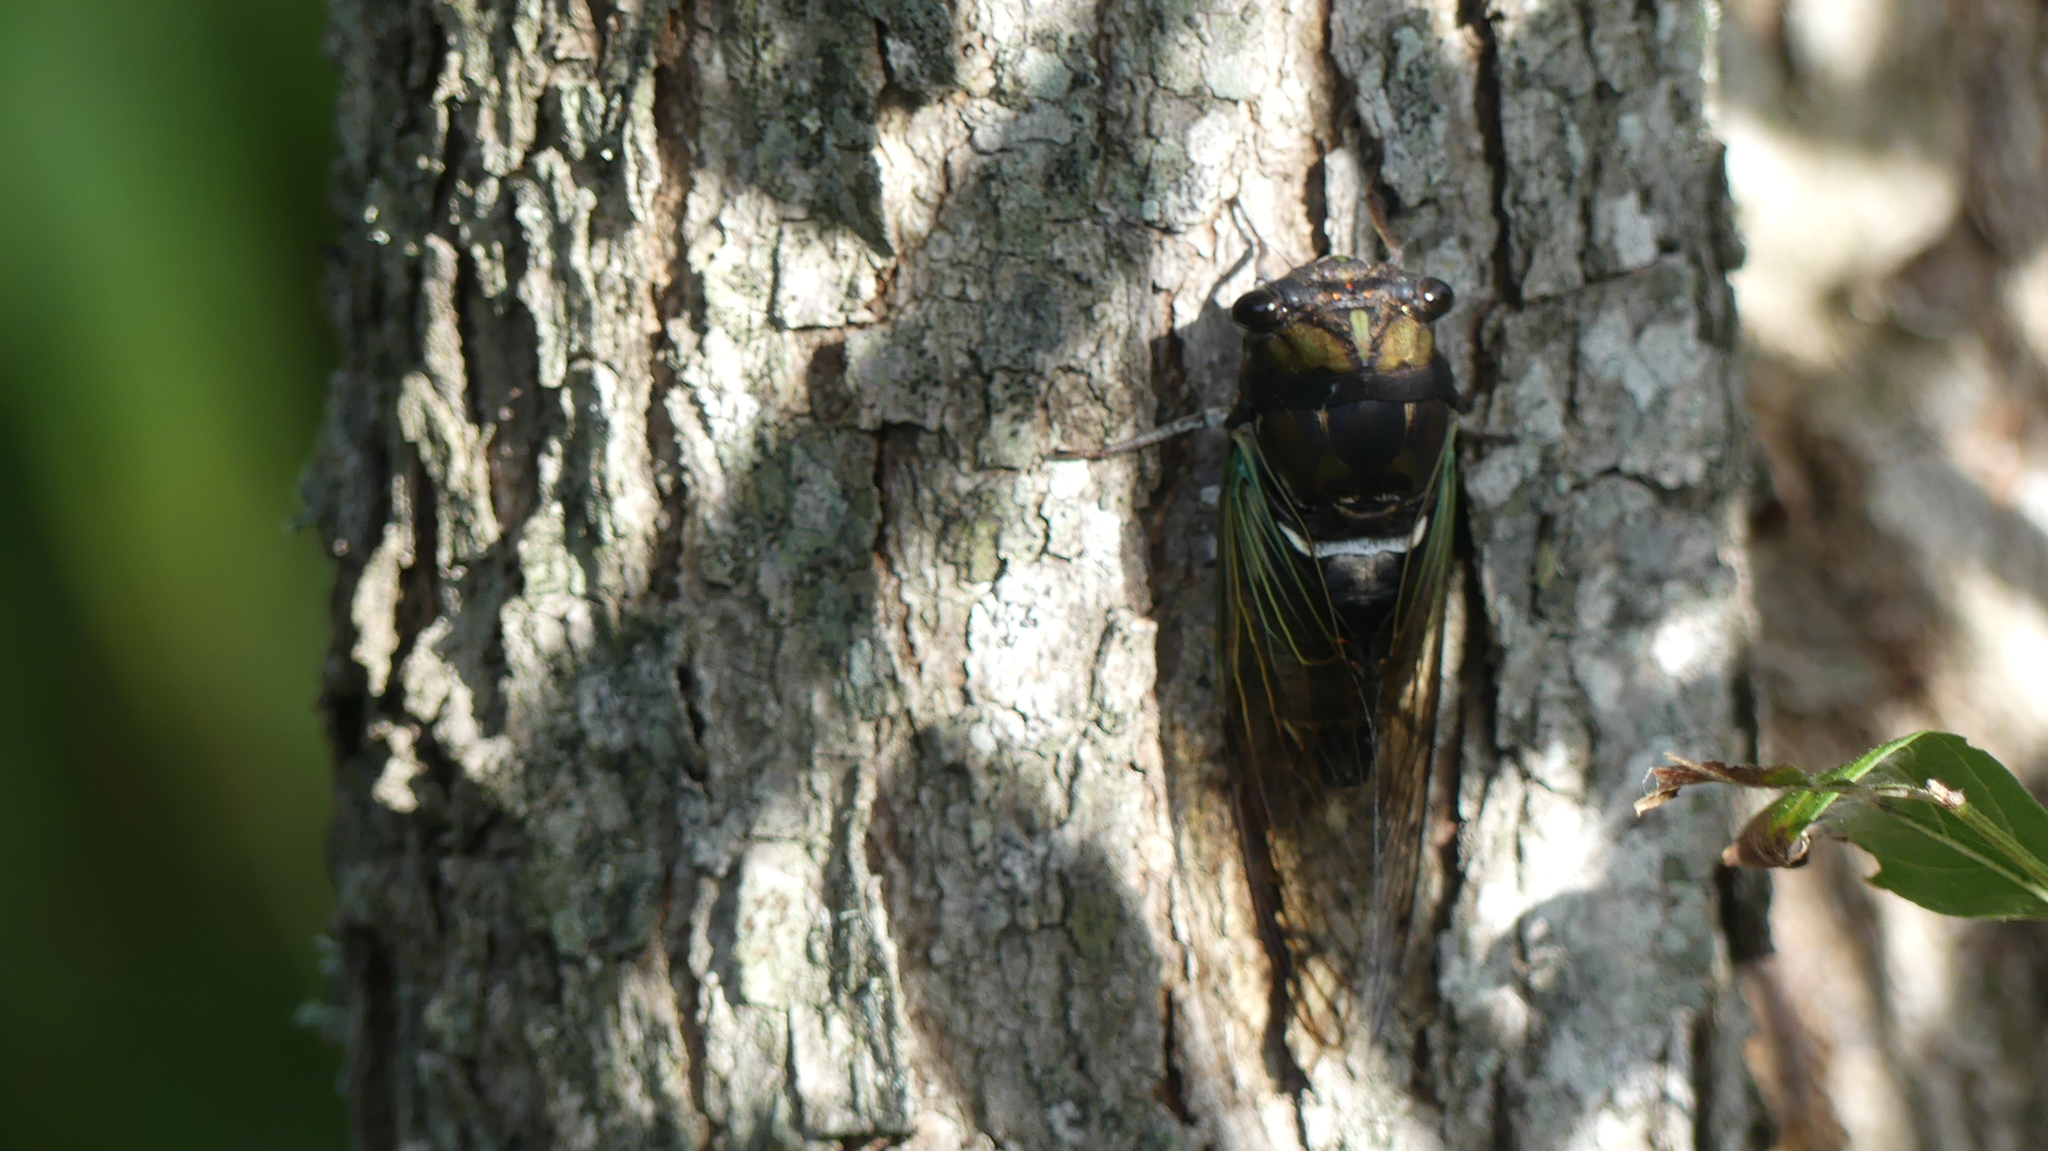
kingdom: Animalia
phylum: Arthropoda
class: Insecta
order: Hemiptera
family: Cicadidae
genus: Neotibicen
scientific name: Neotibicen lyricen
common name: Lyric cicada
